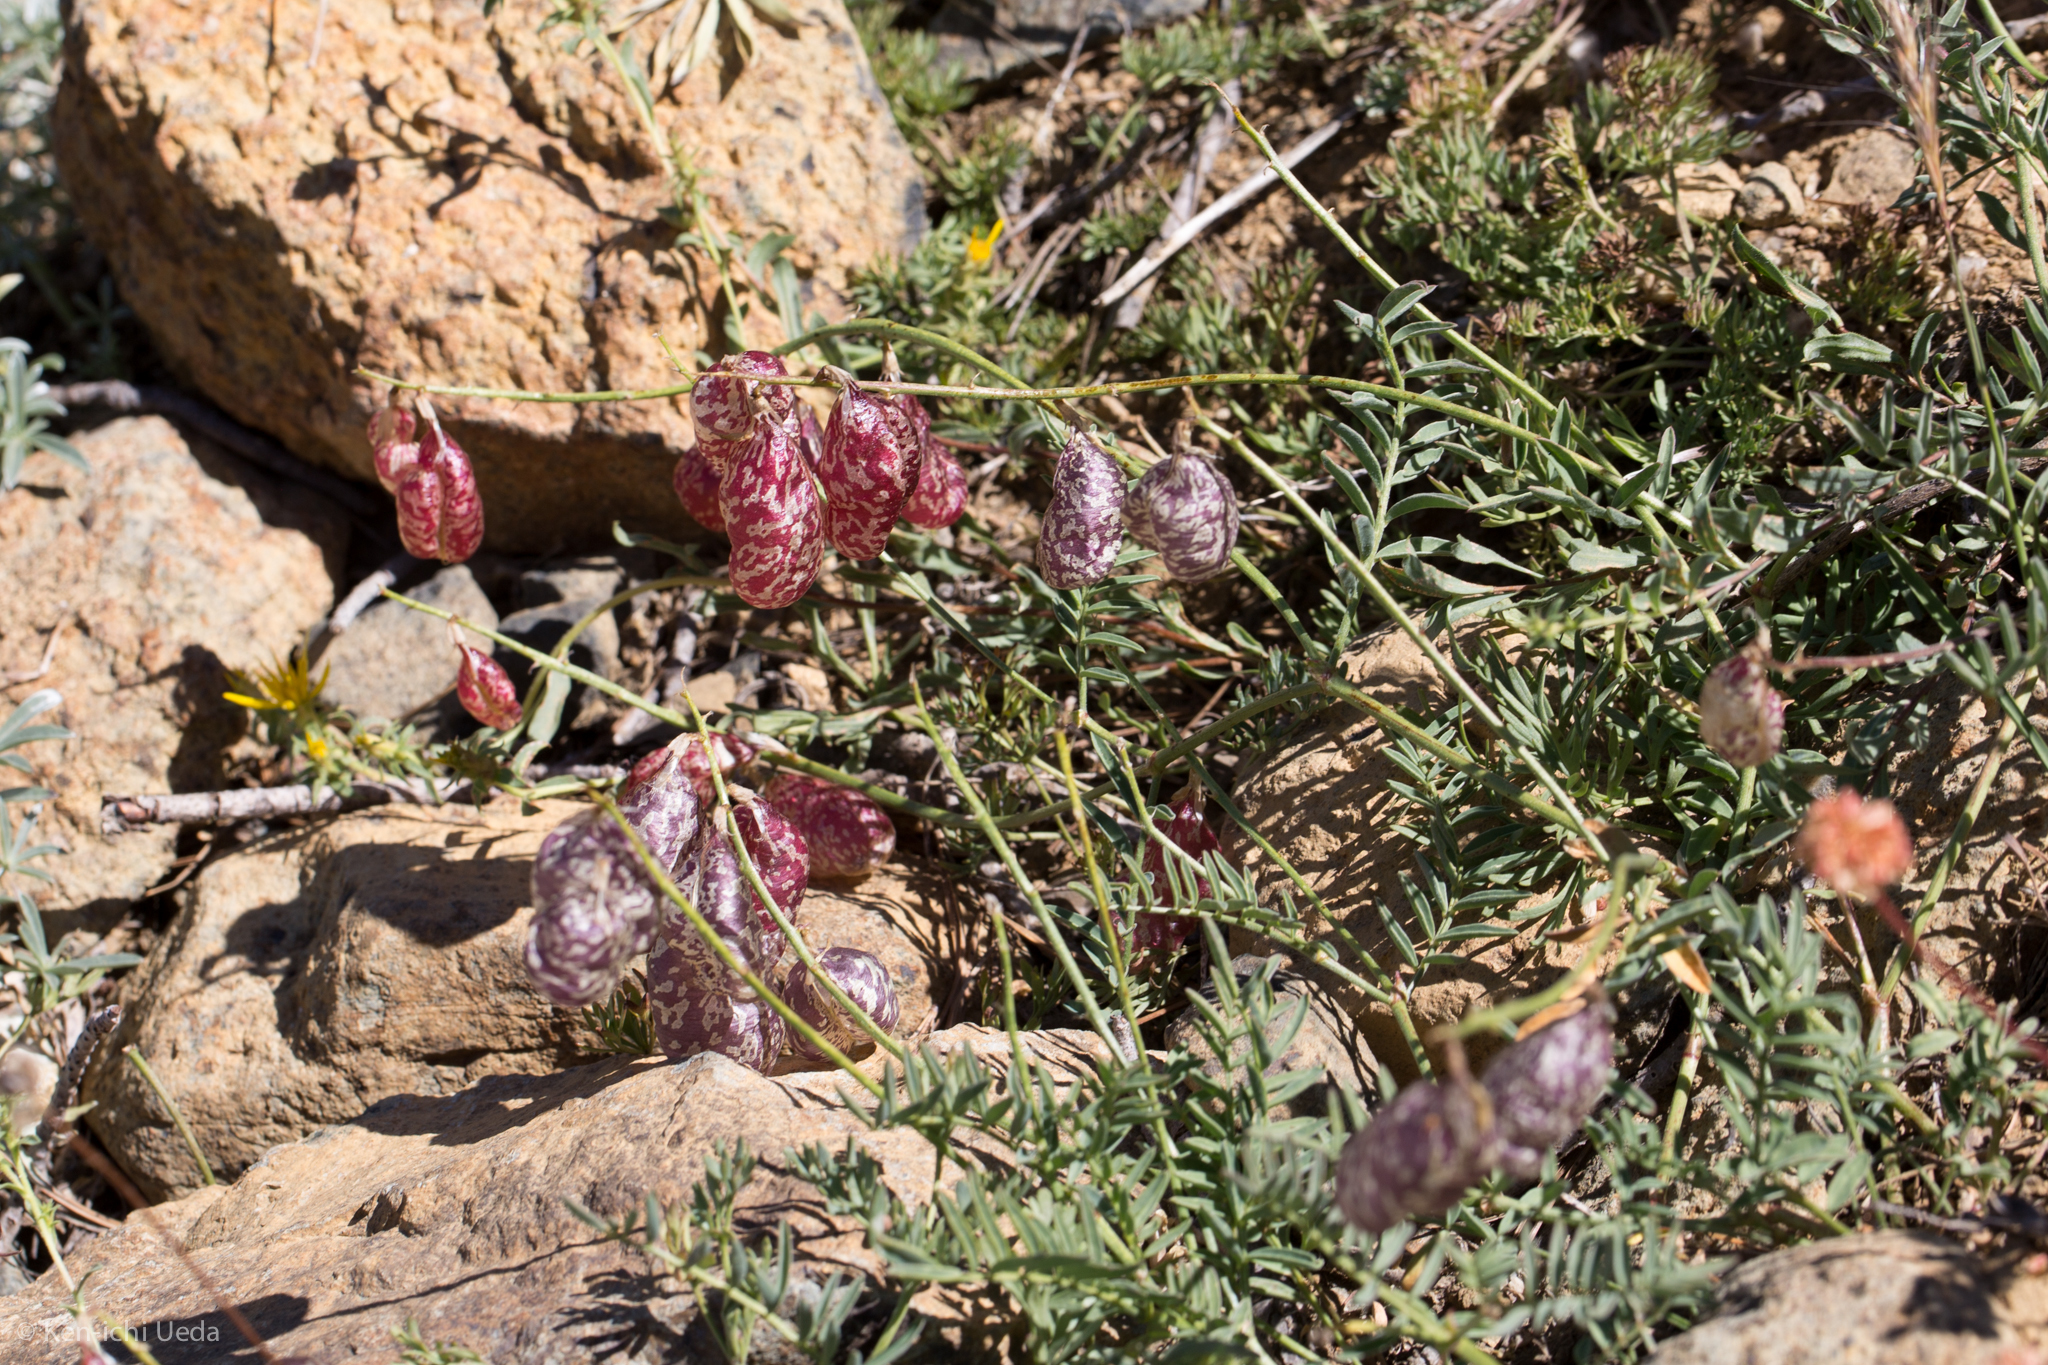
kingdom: Plantae
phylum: Tracheophyta
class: Magnoliopsida
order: Fabales
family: Fabaceae
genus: Astragalus
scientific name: Astragalus whitneyi
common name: Balloonpod milkvetch
